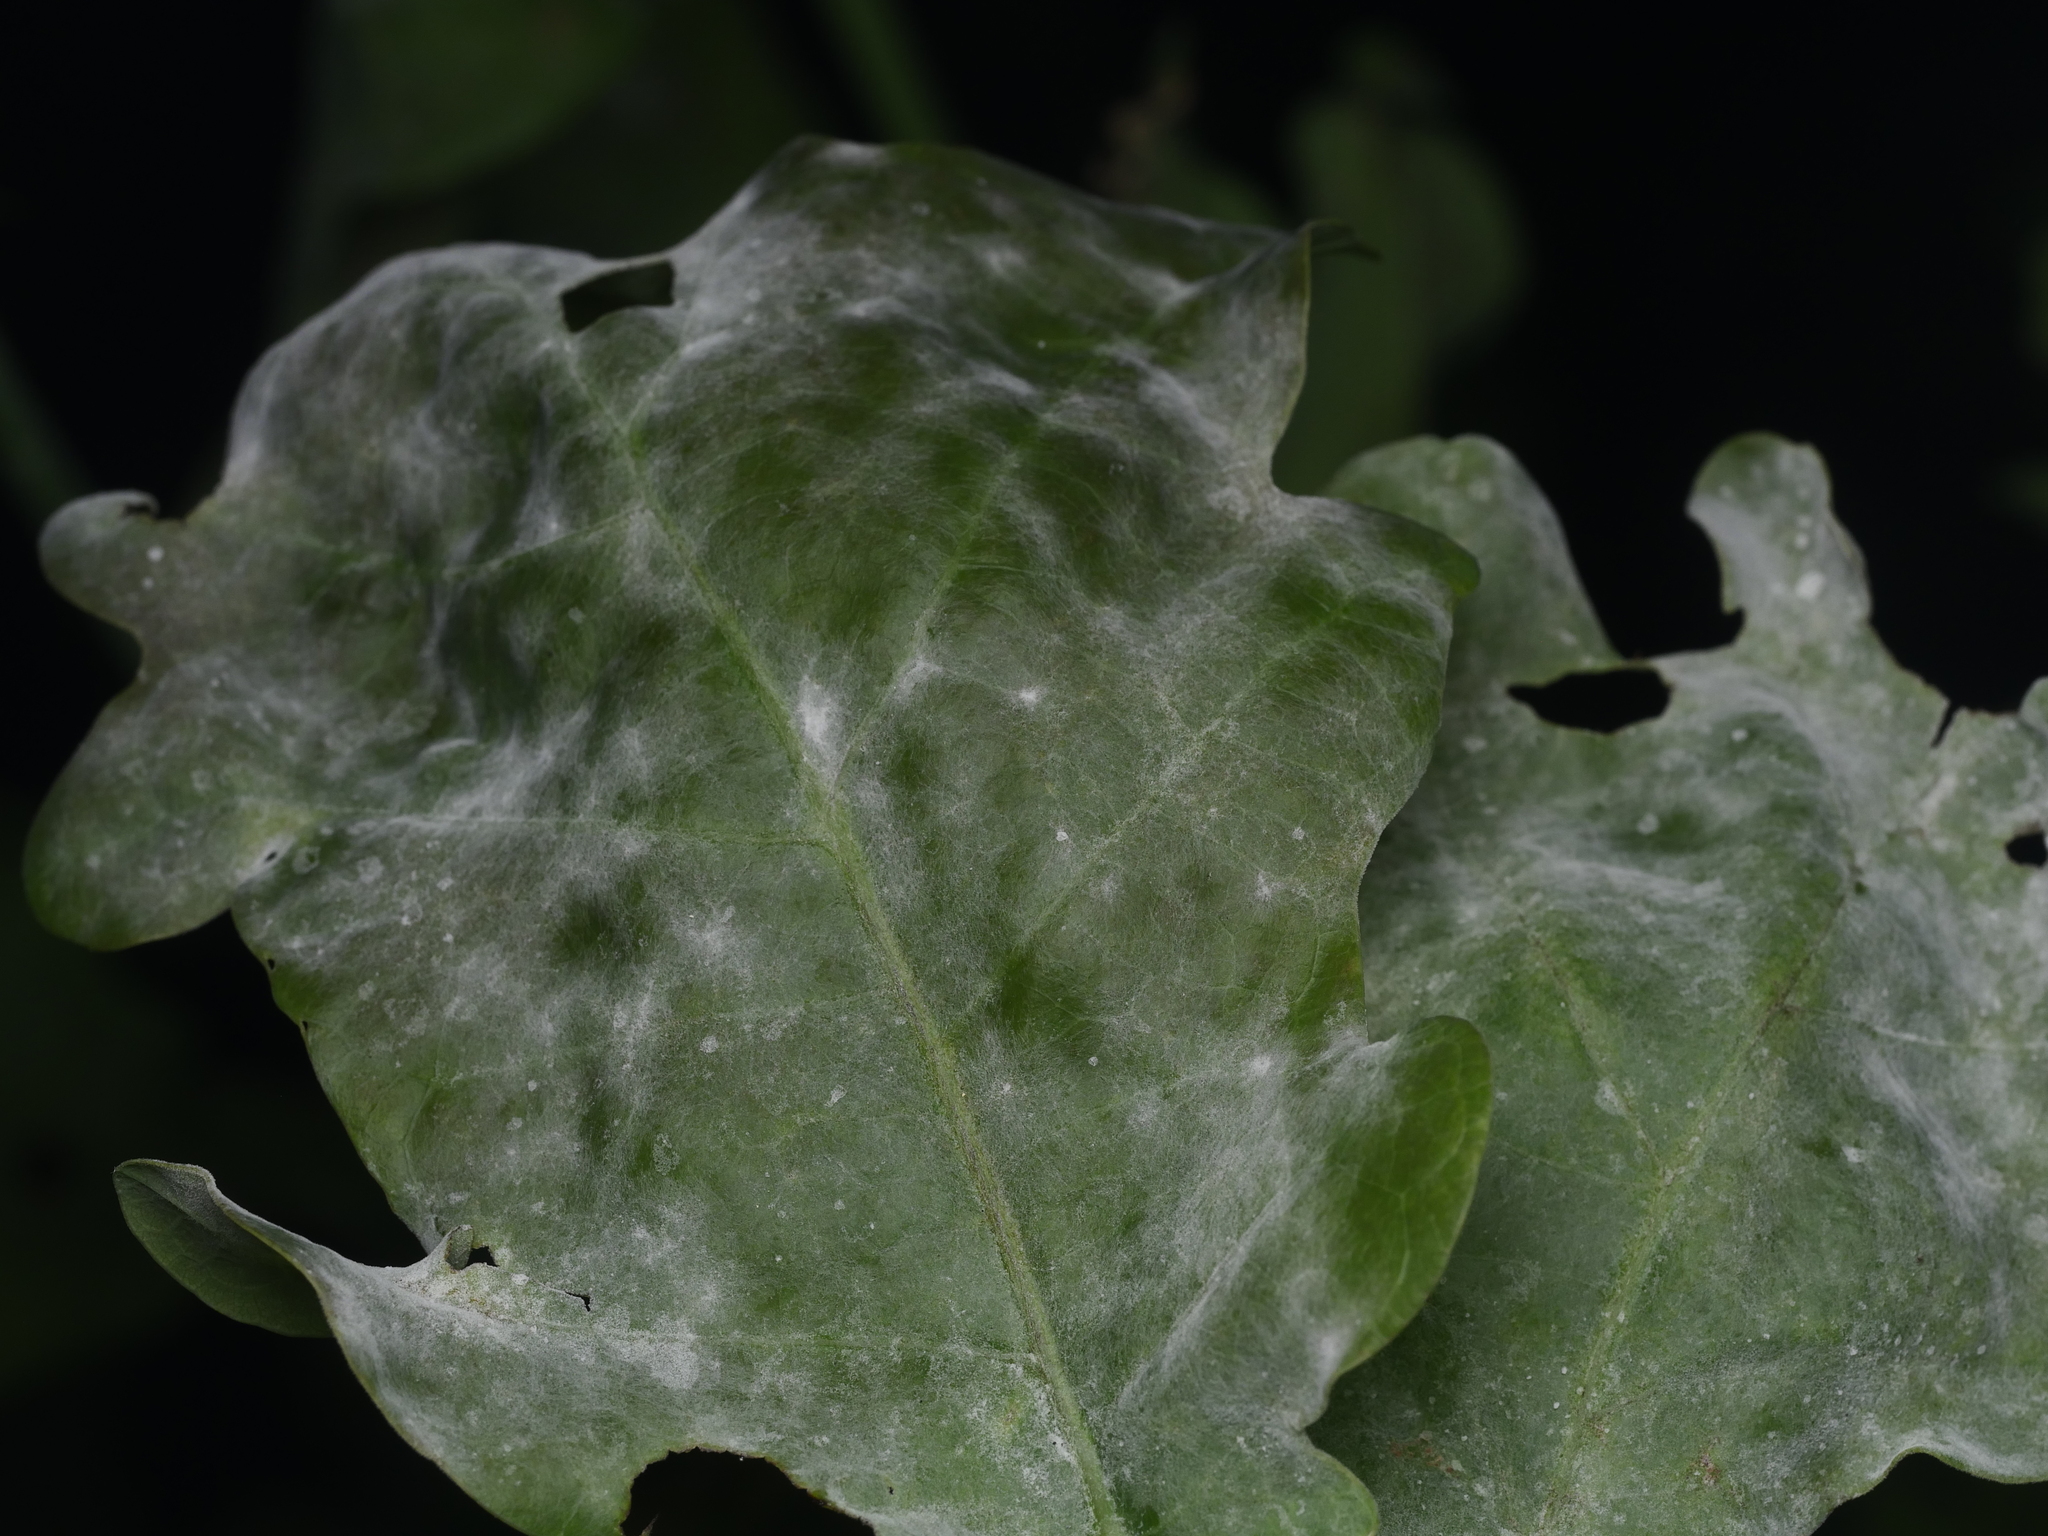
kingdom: Fungi
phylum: Ascomycota
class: Leotiomycetes
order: Helotiales
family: Erysiphaceae
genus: Erysiphe
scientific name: Erysiphe
